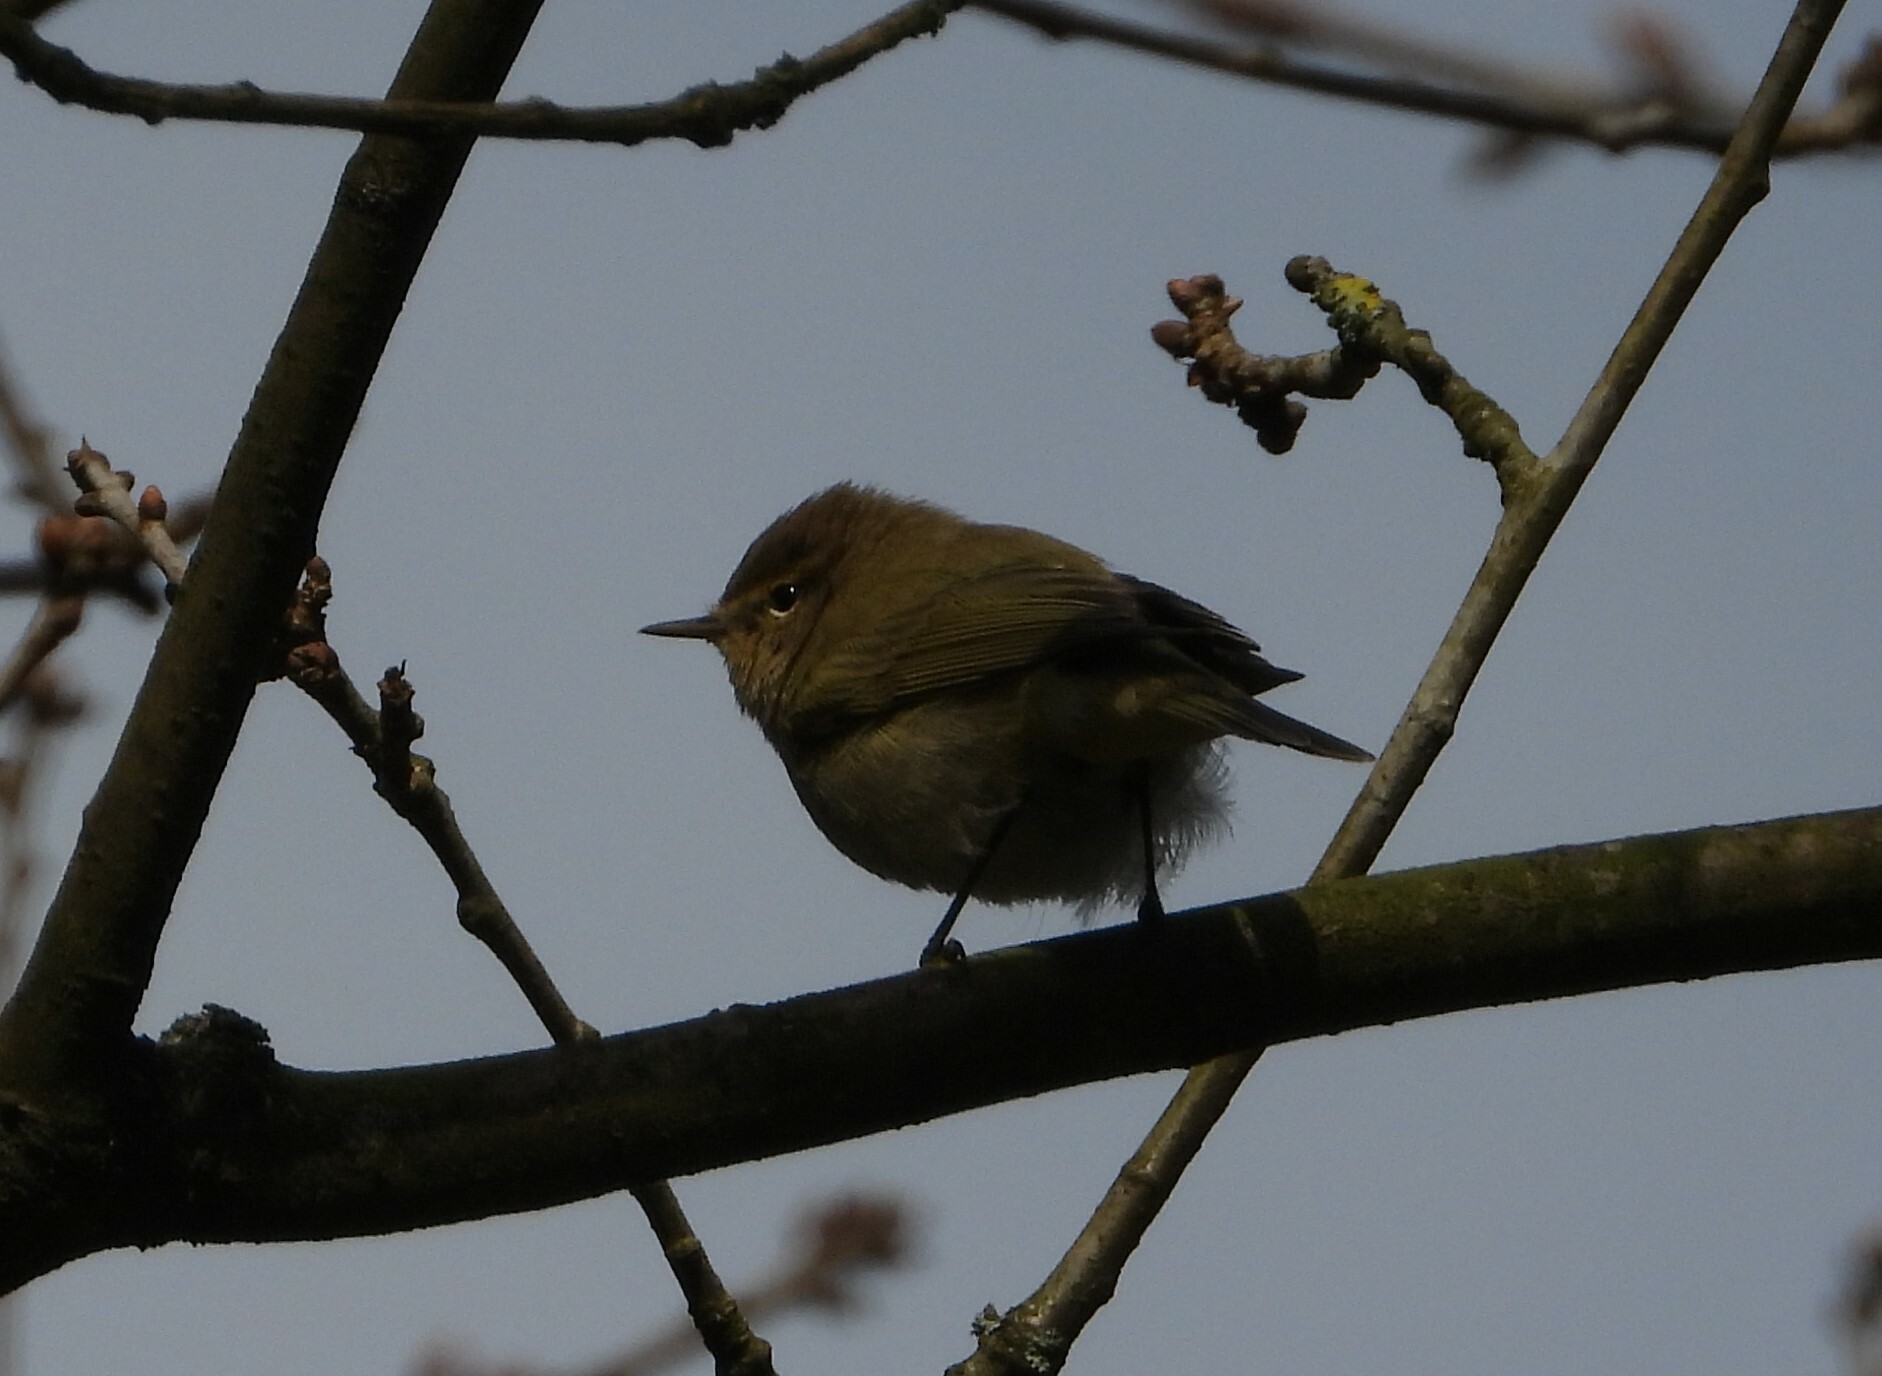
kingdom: Animalia
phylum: Chordata
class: Aves
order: Passeriformes
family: Phylloscopidae
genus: Phylloscopus
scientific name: Phylloscopus collybita
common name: Common chiffchaff
